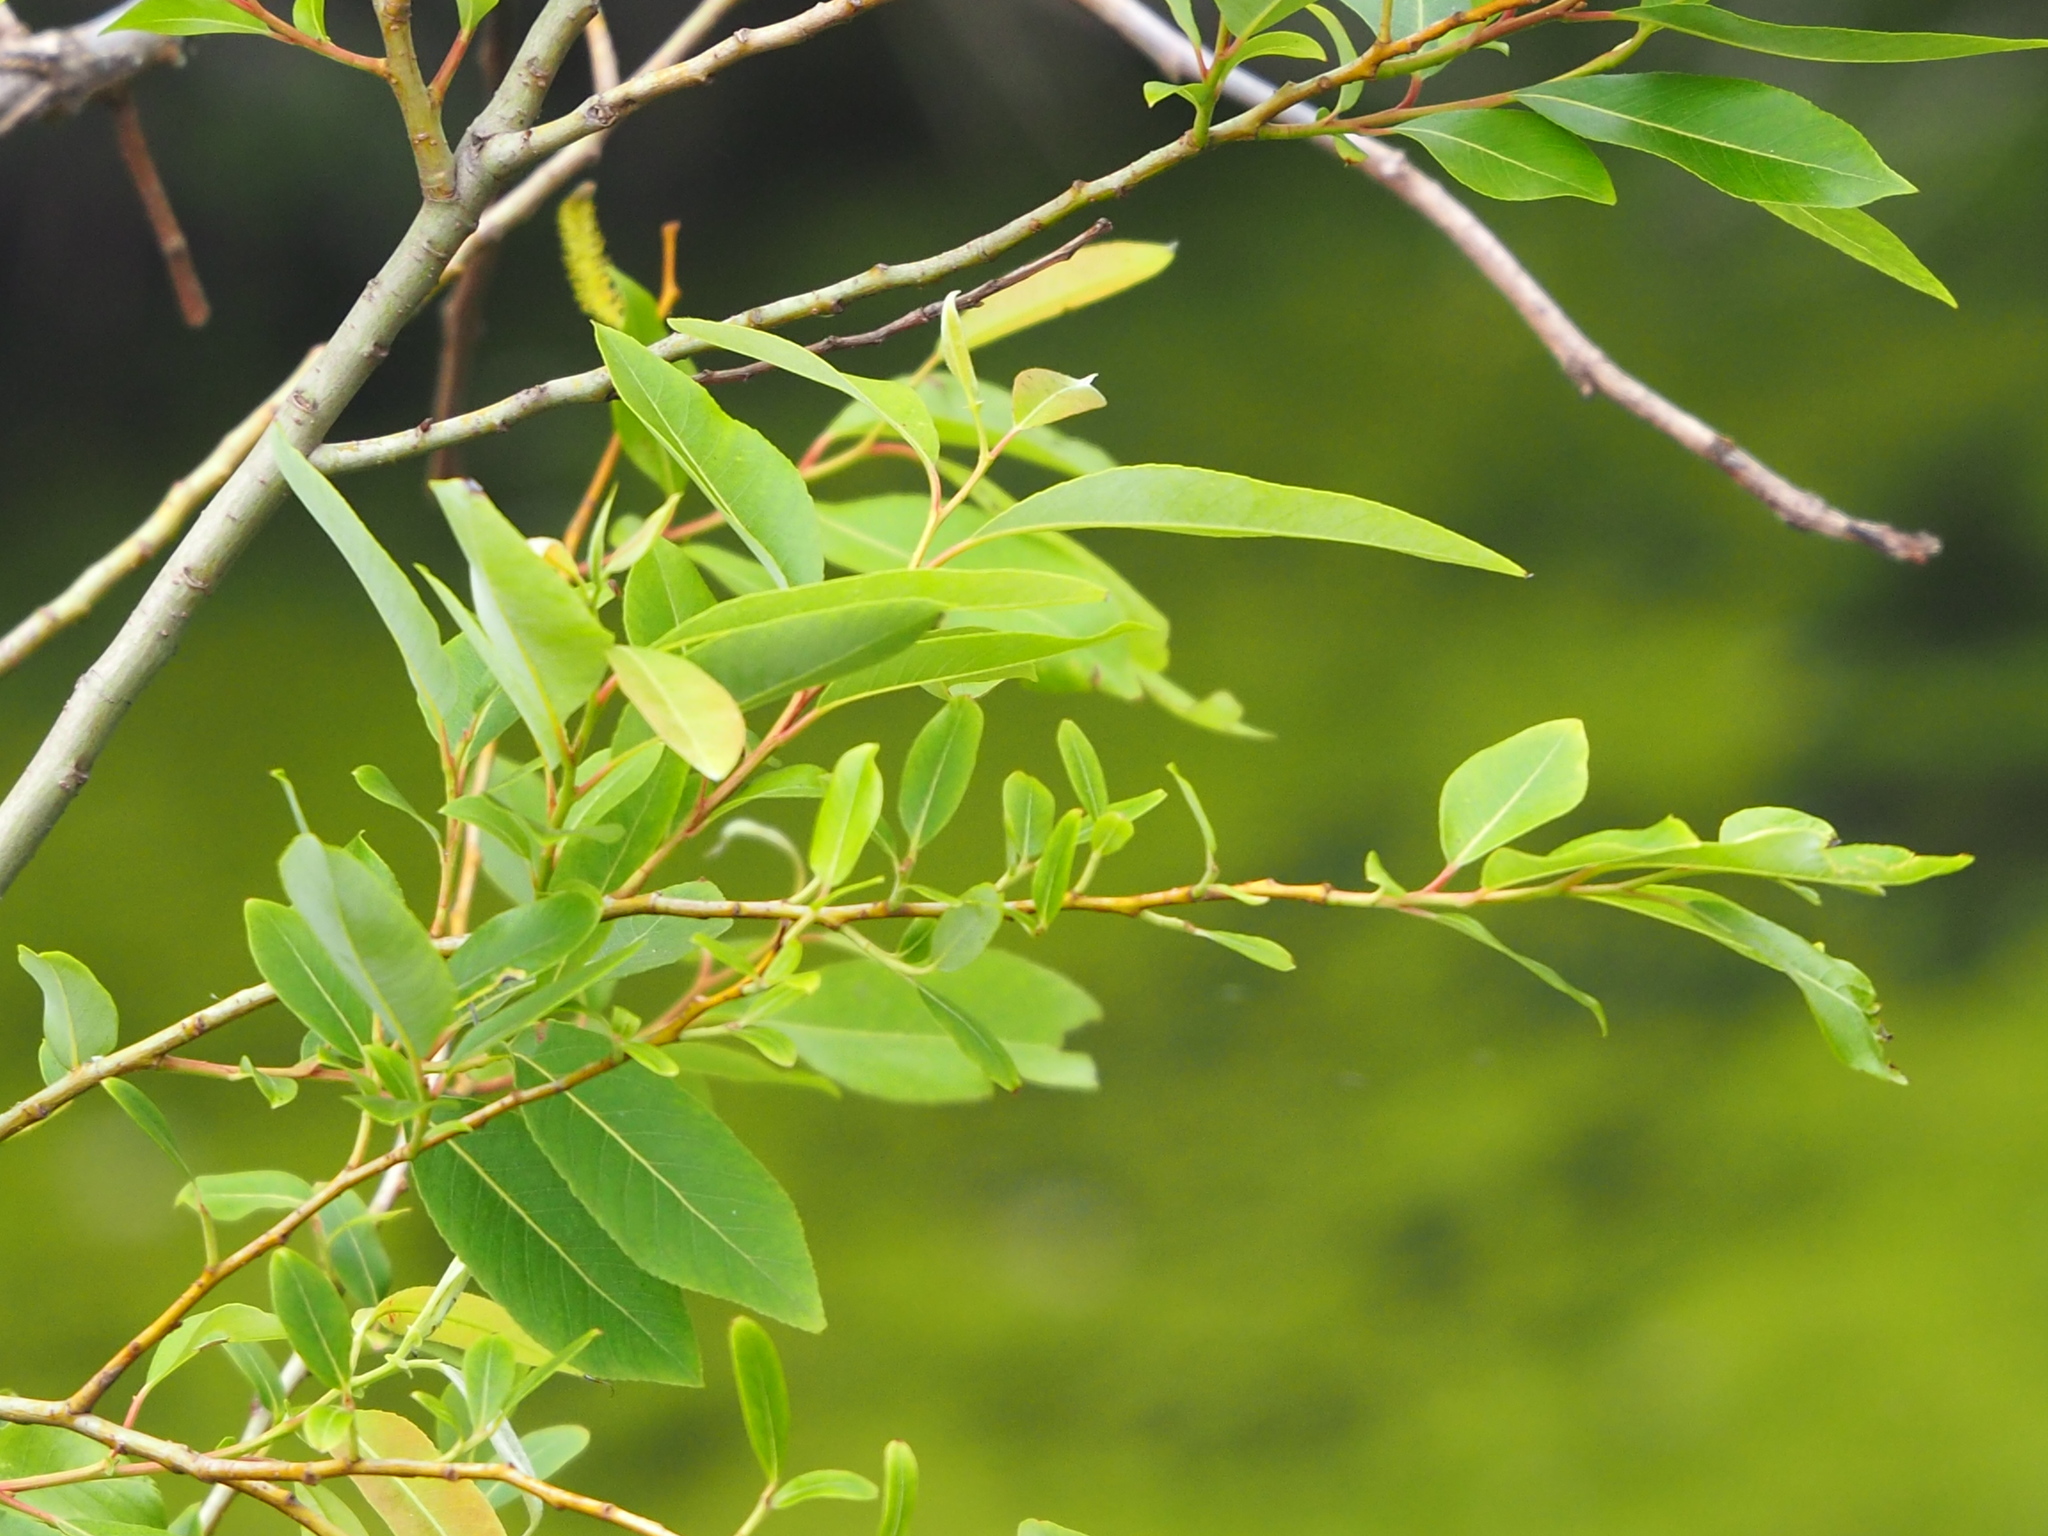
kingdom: Plantae
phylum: Tracheophyta
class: Magnoliopsida
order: Malpighiales
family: Salicaceae
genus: Salix
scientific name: Salix mesnyi
